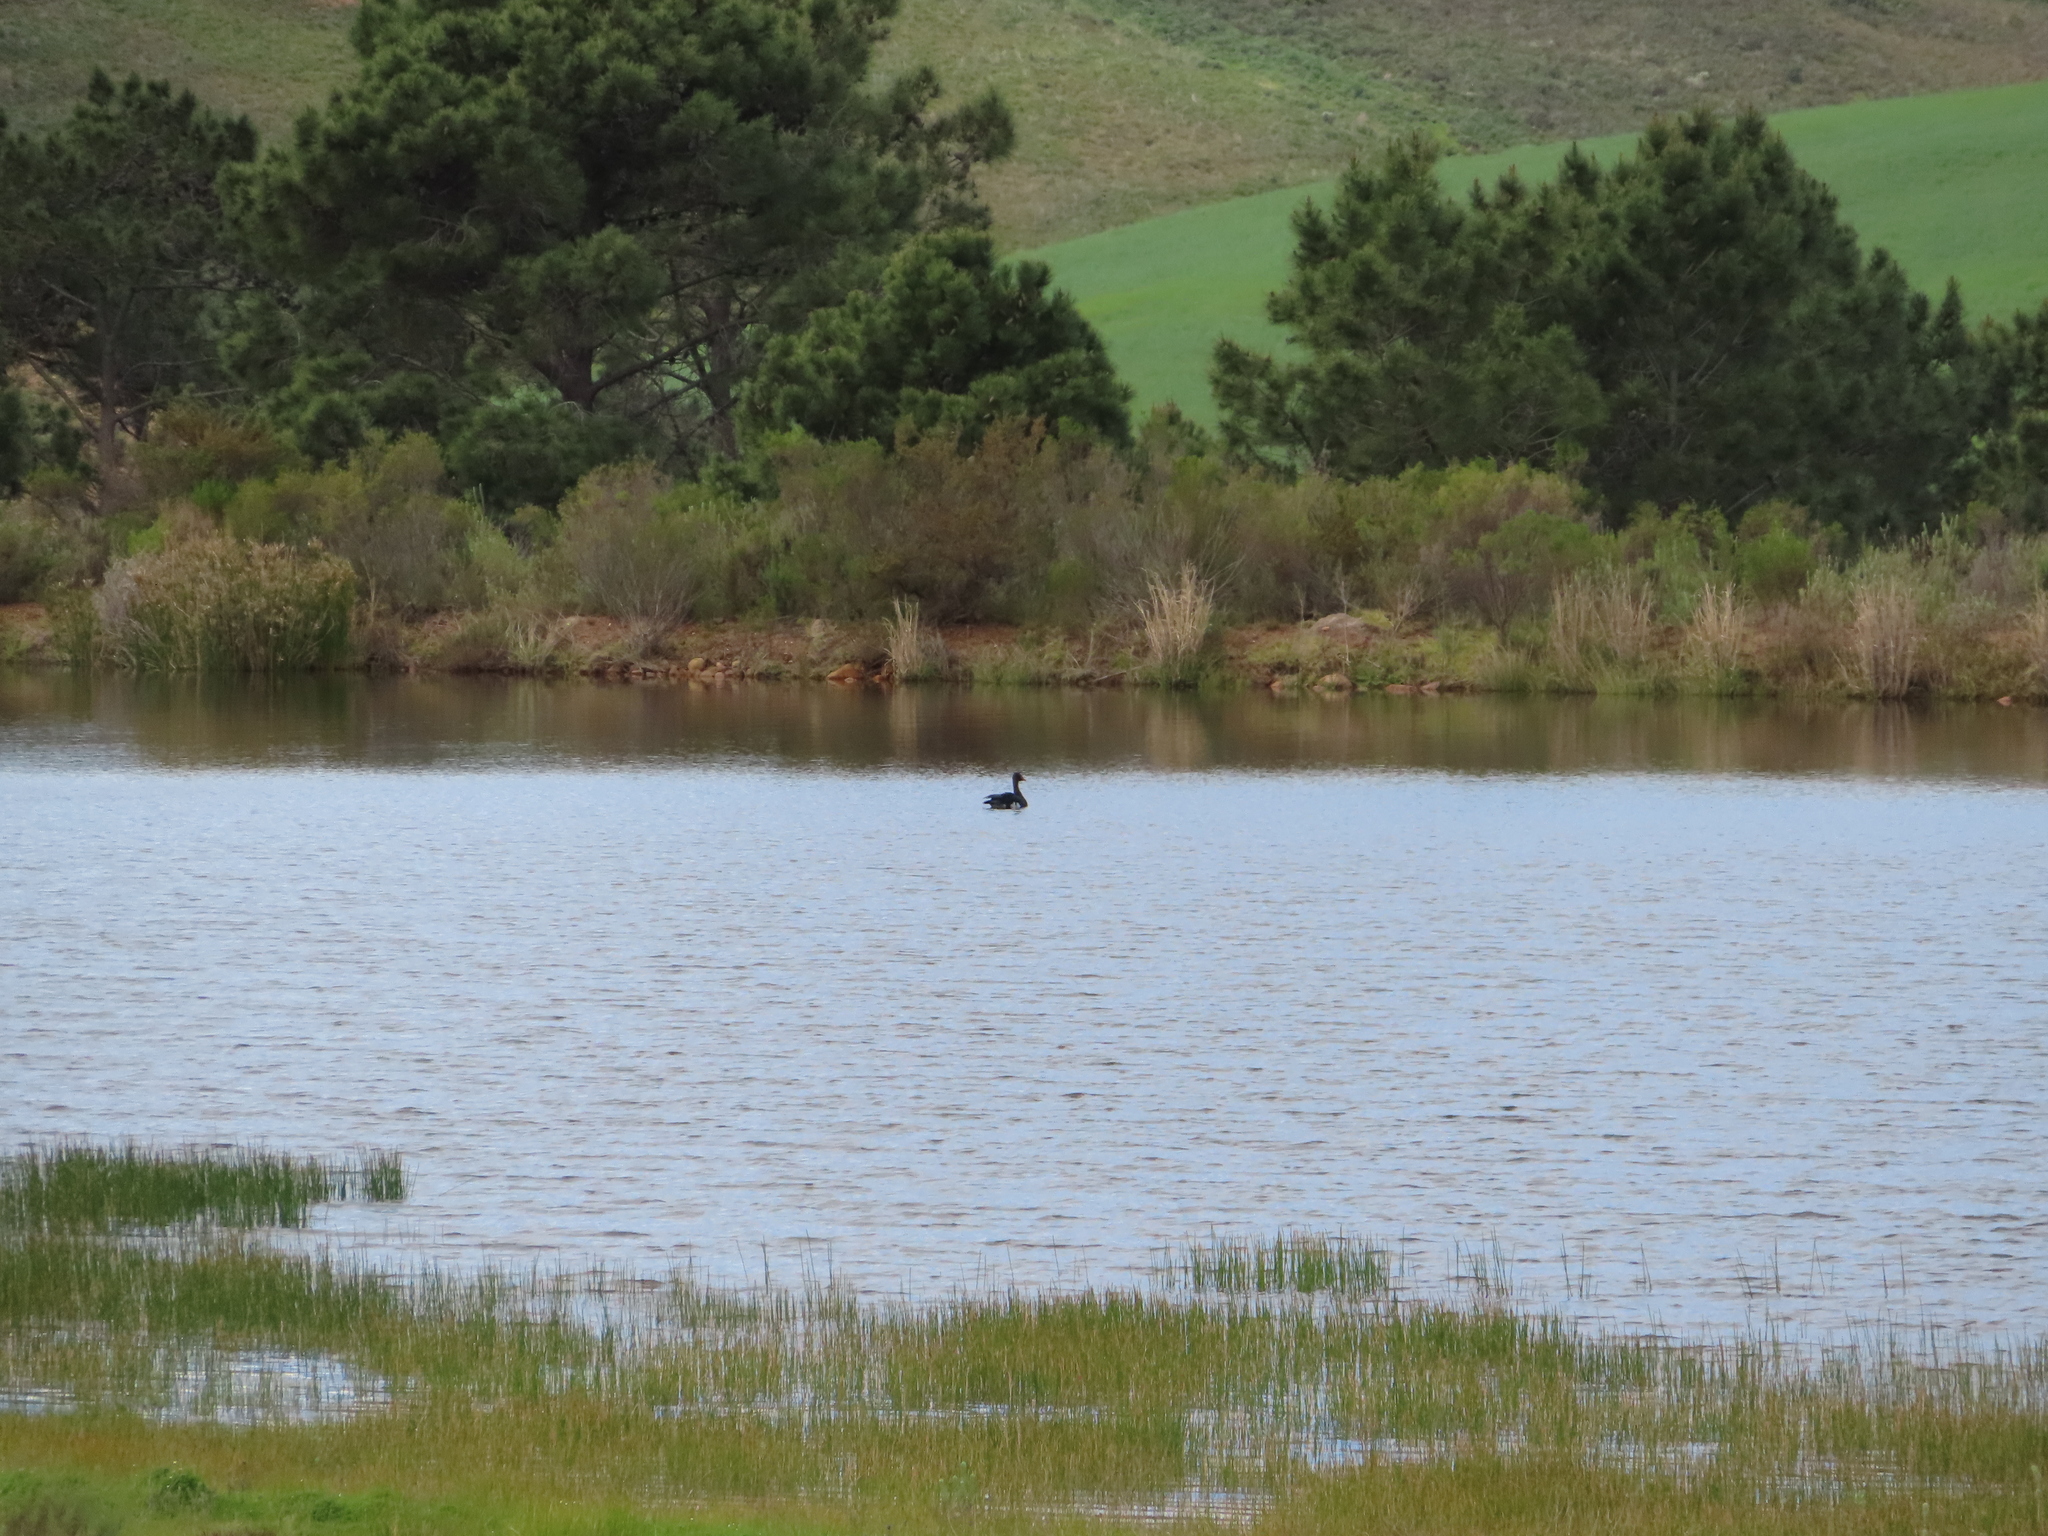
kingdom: Animalia
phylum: Chordata
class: Aves
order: Anseriformes
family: Anatidae
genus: Plectropterus
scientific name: Plectropterus gambensis
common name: Spur-winged goose
